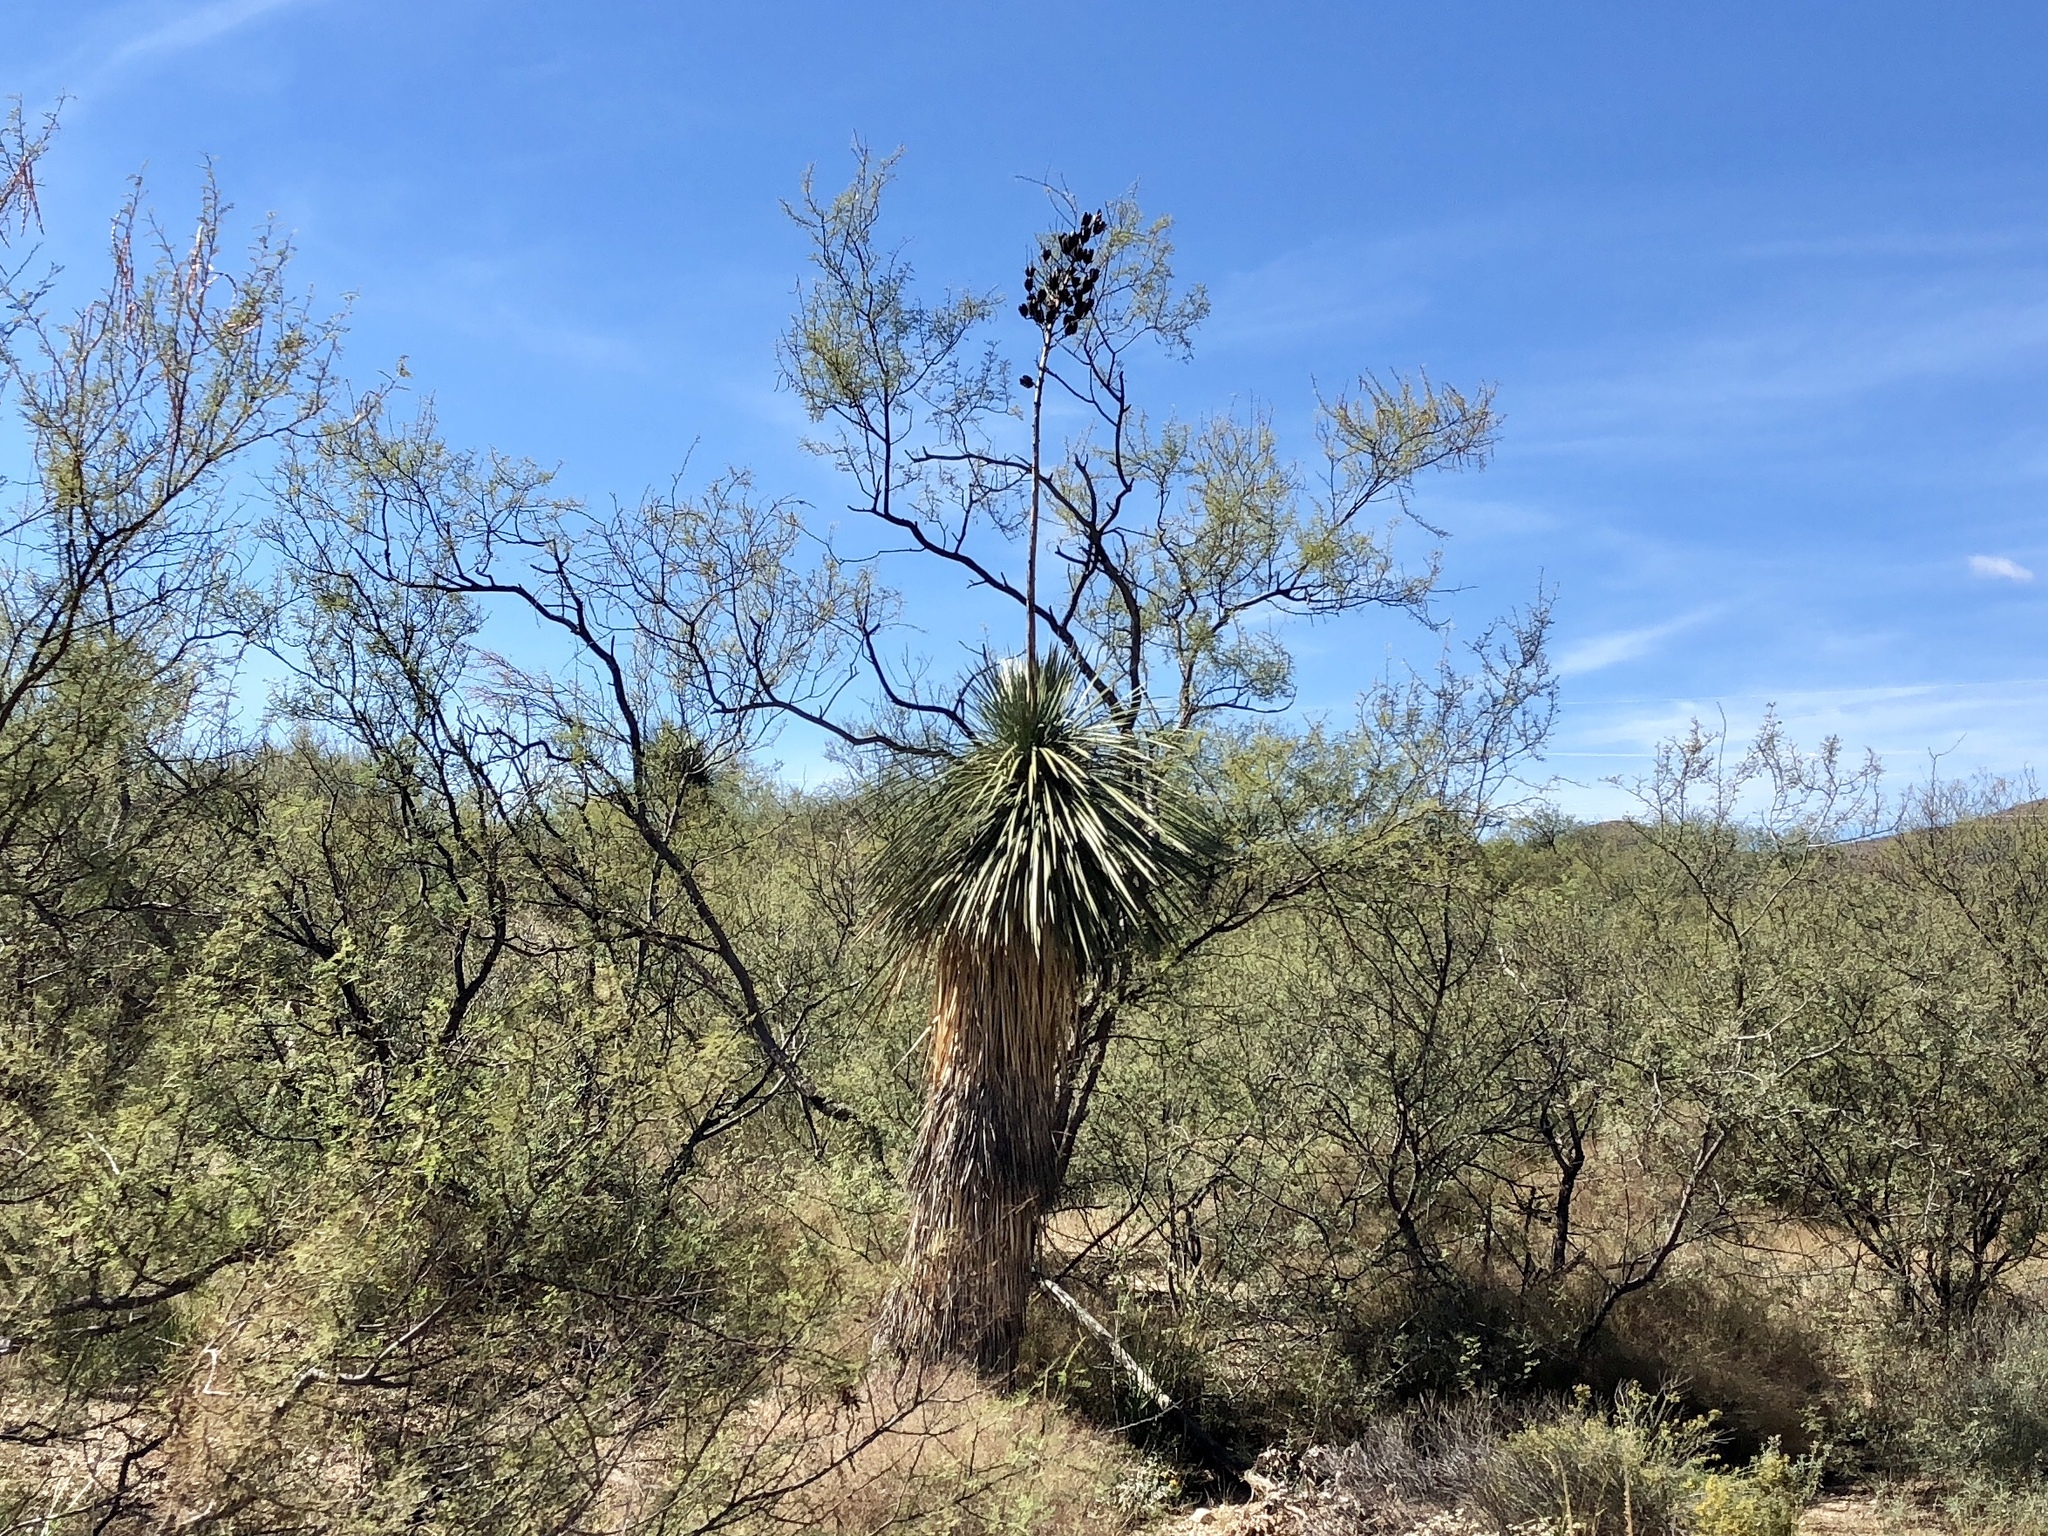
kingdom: Plantae
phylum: Tracheophyta
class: Liliopsida
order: Asparagales
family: Asparagaceae
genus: Yucca
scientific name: Yucca elata
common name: Palmella
